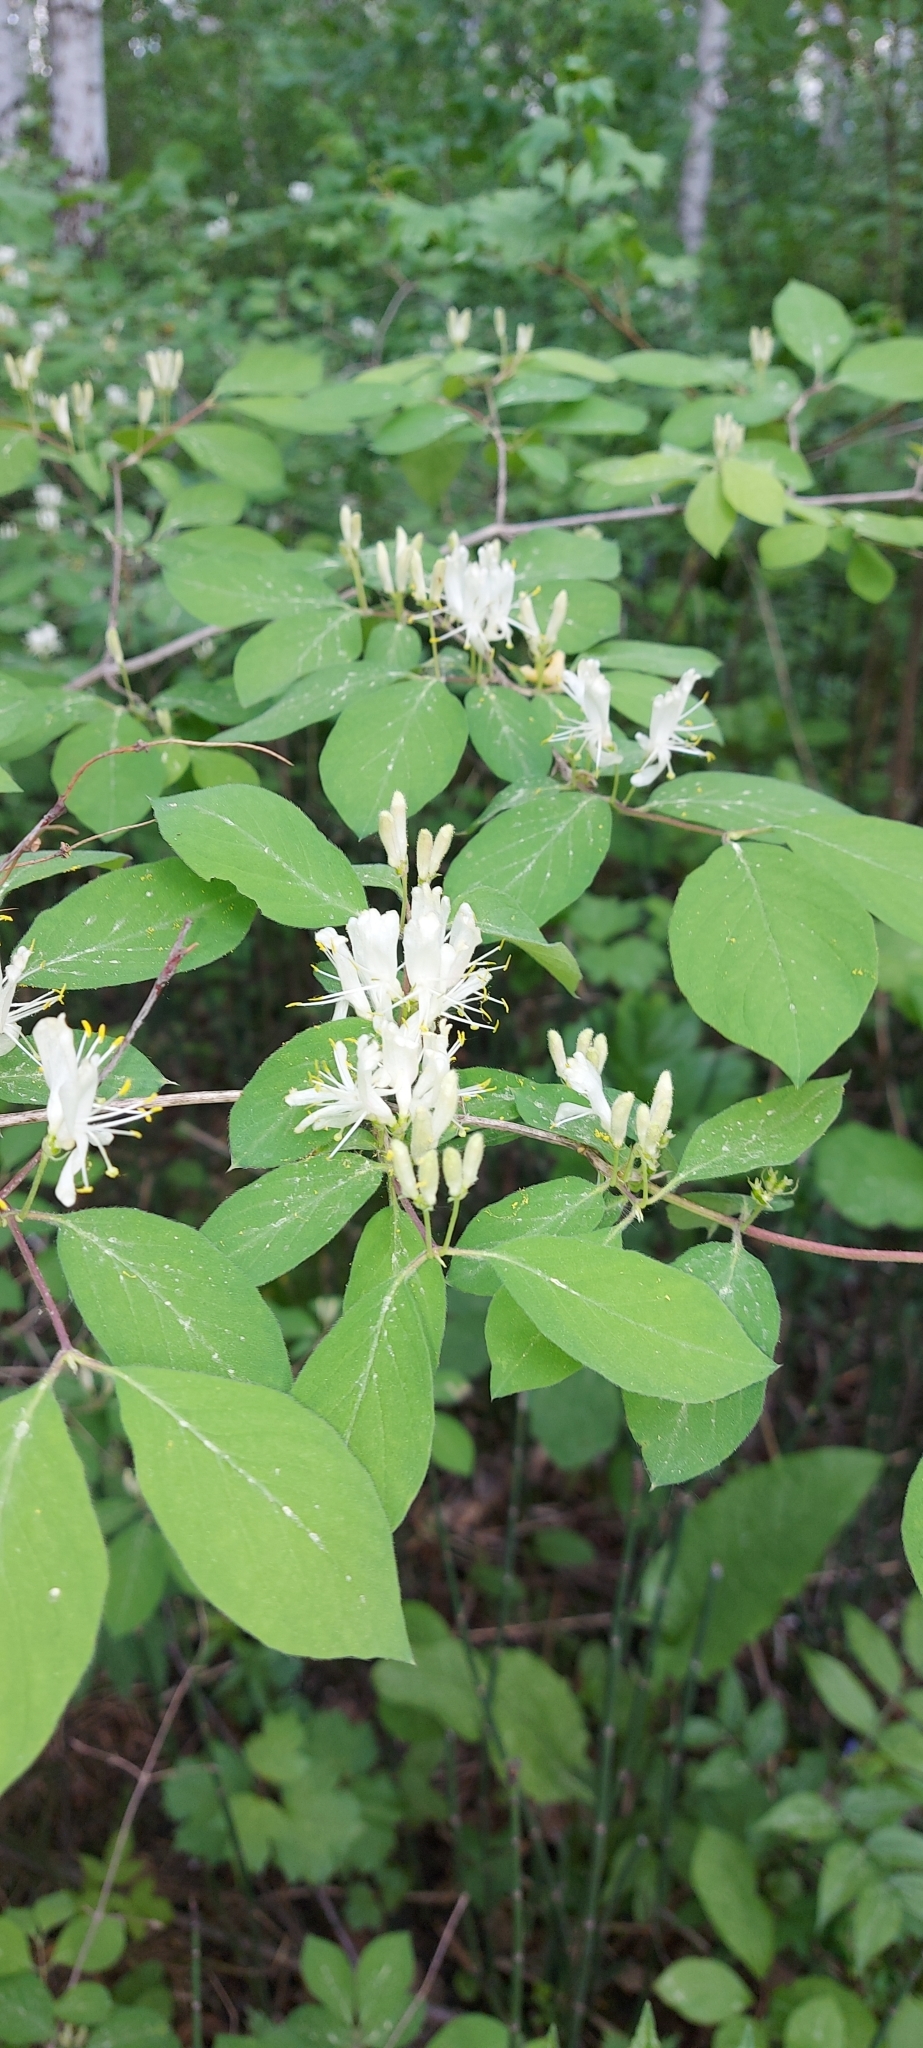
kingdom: Plantae
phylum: Tracheophyta
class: Magnoliopsida
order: Dipsacales
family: Caprifoliaceae
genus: Lonicera
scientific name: Lonicera xylosteum
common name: Fly honeysuckle
